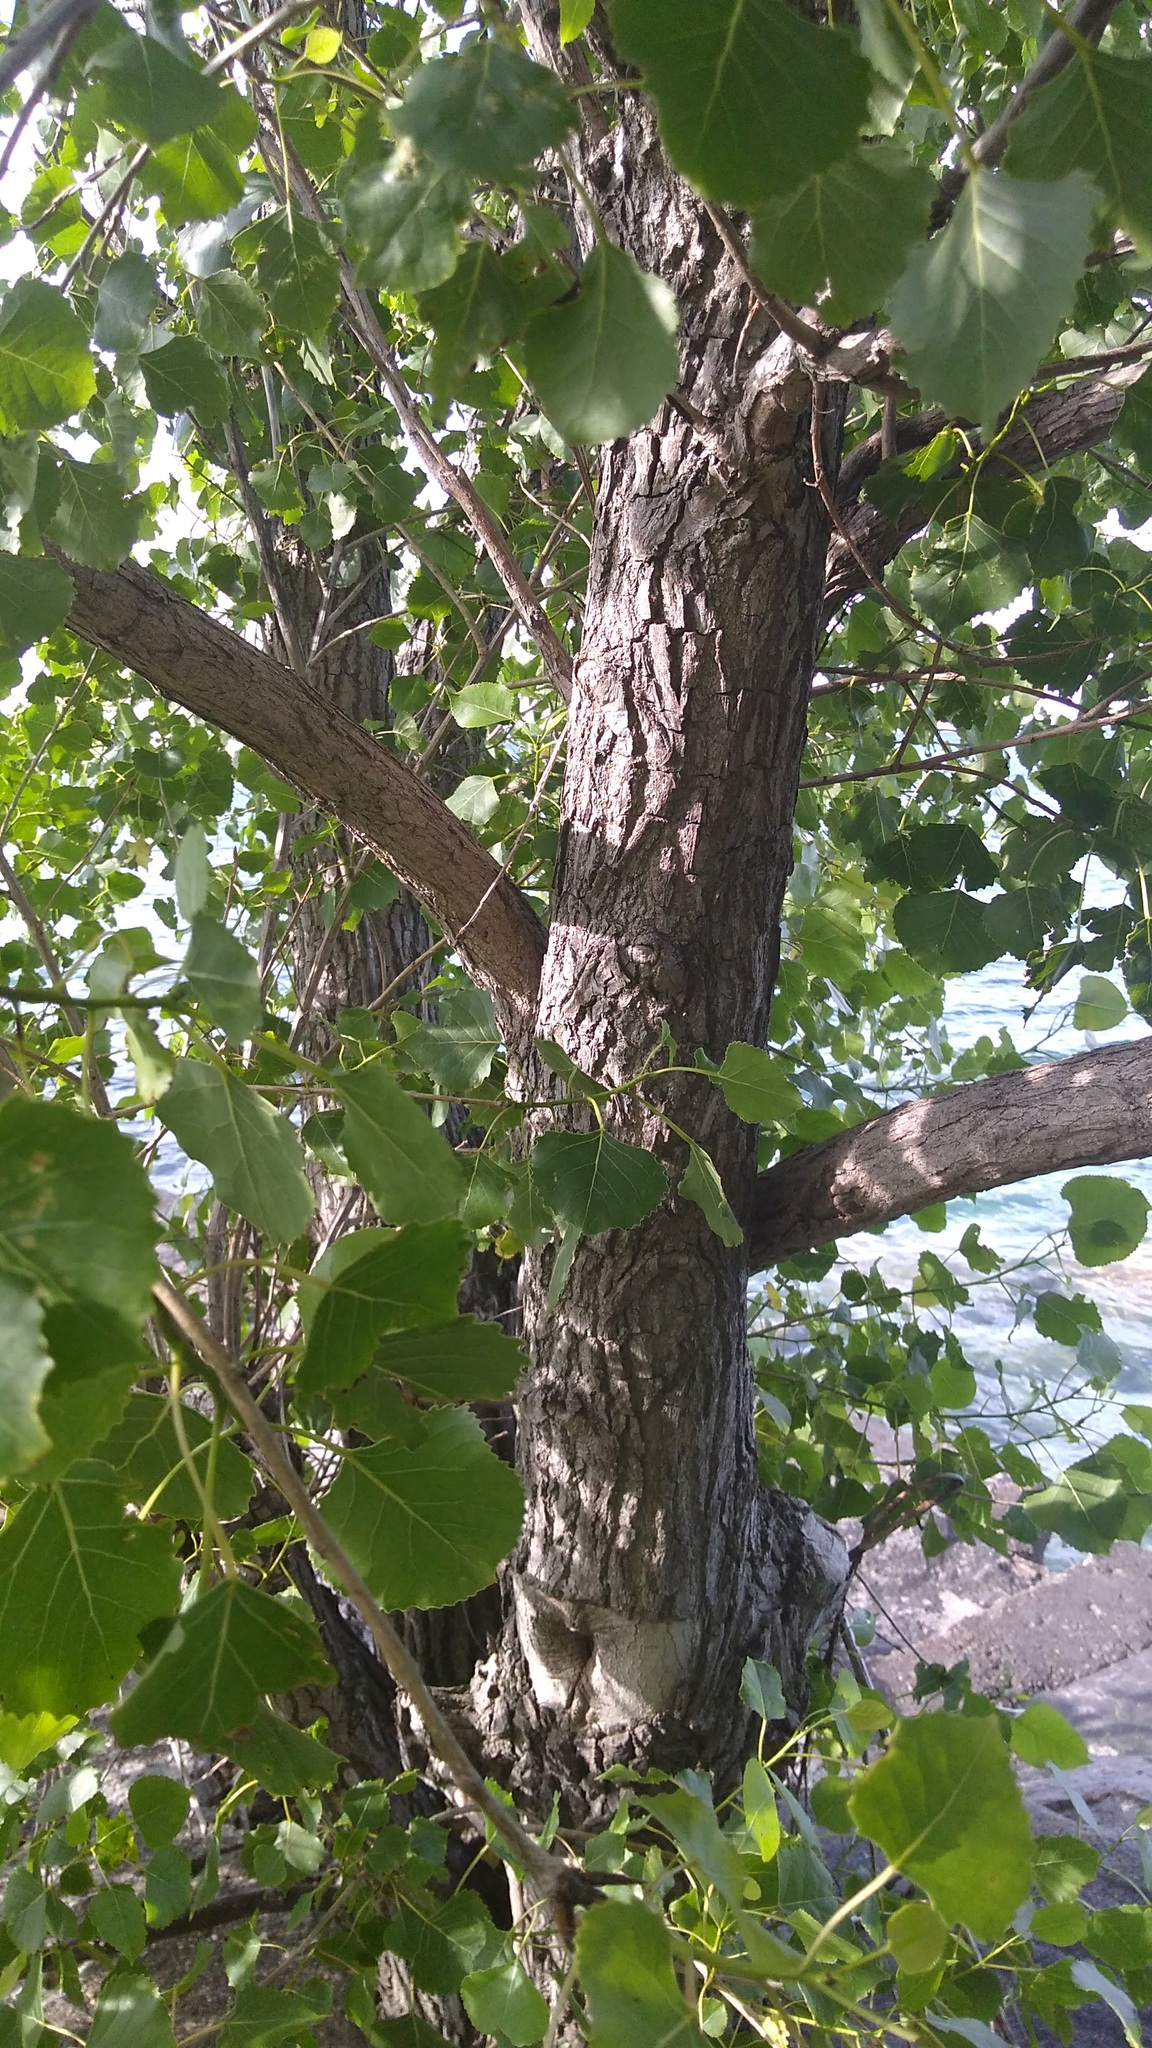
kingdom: Plantae
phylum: Tracheophyta
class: Magnoliopsida
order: Malpighiales
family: Salicaceae
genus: Populus
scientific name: Populus deltoides
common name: Eastern cottonwood
